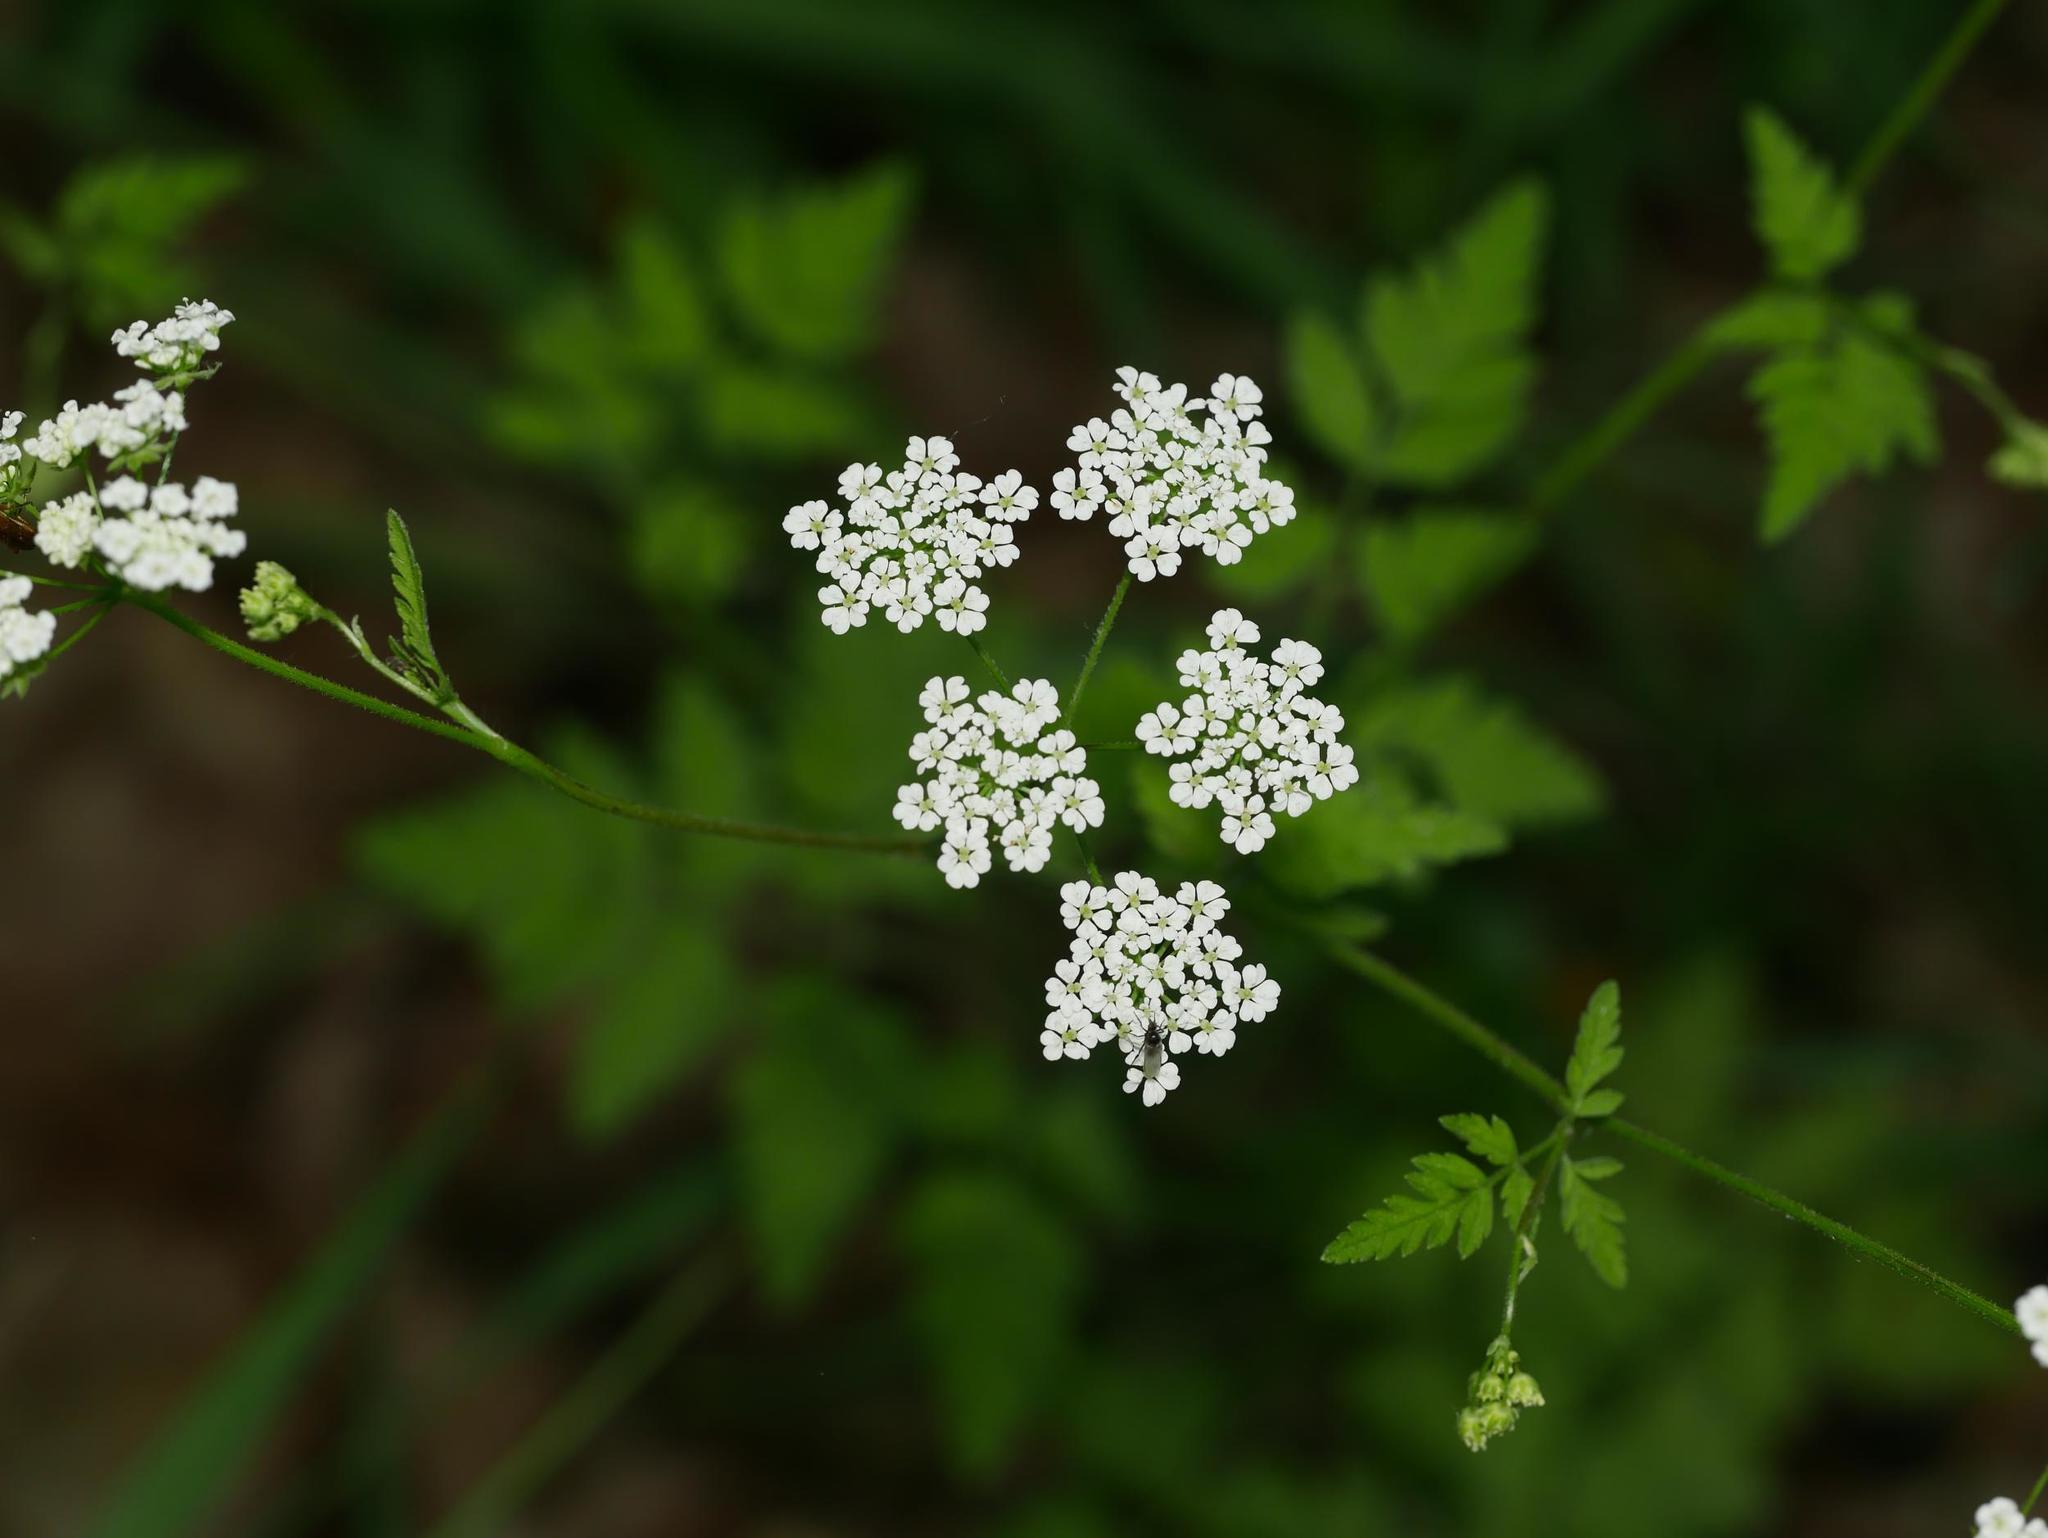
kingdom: Plantae
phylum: Tracheophyta
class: Magnoliopsida
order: Apiales
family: Apiaceae
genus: Chaerophyllum
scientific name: Chaerophyllum temulum
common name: Rough chervil
